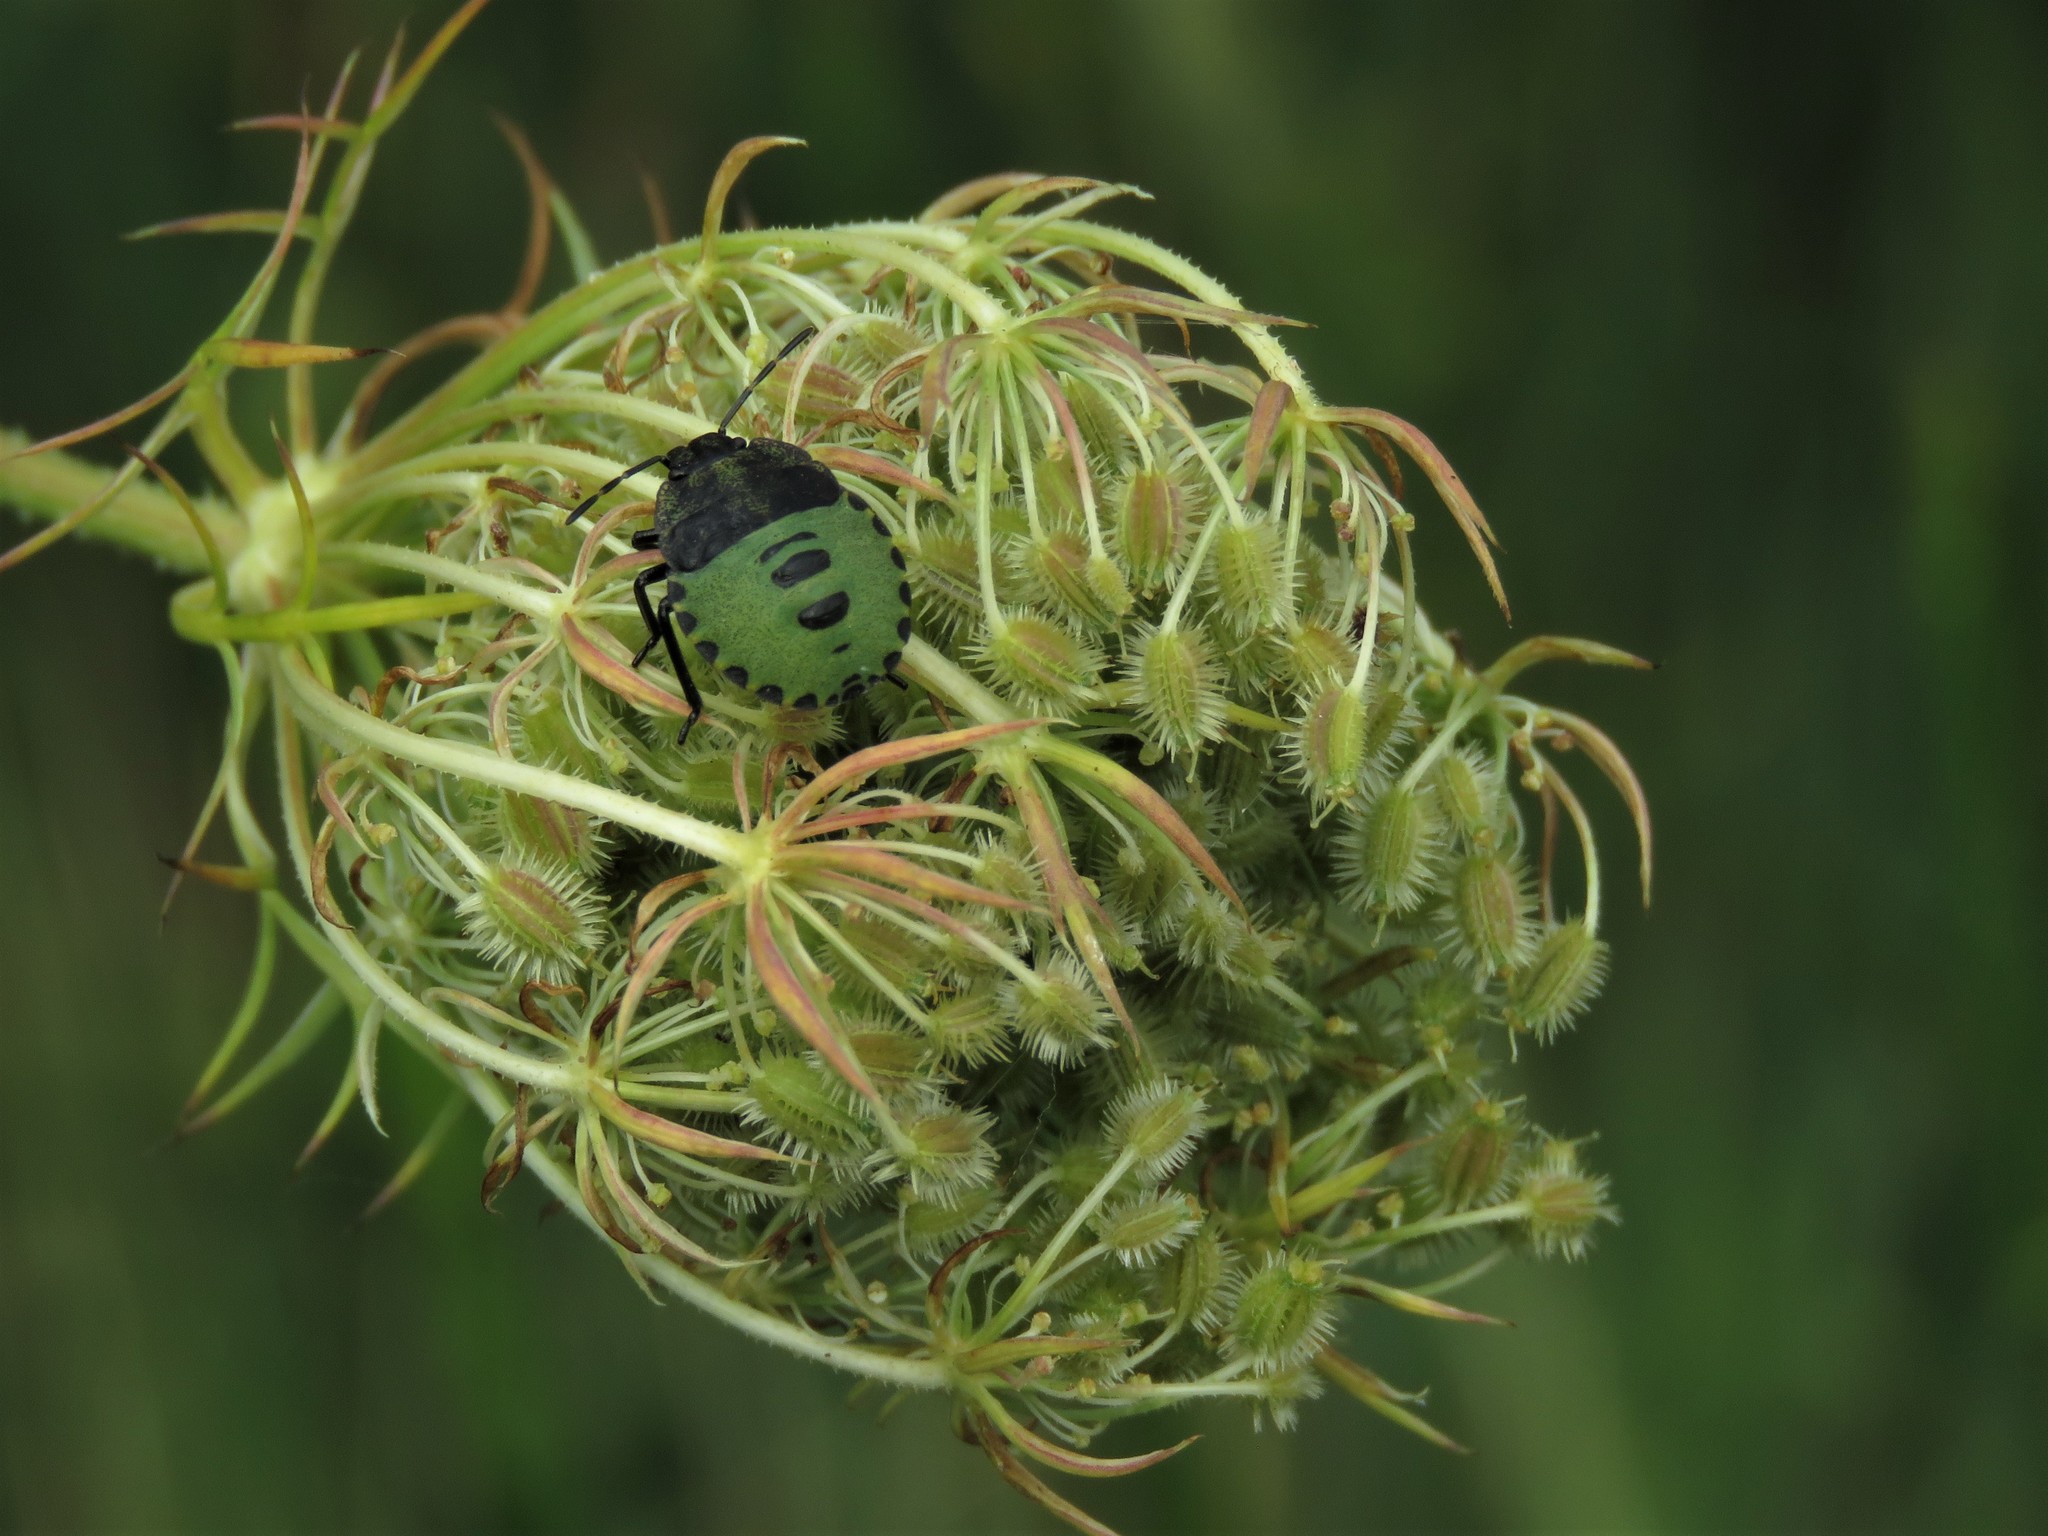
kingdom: Animalia
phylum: Arthropoda
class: Insecta
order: Hemiptera
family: Pentatomidae
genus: Palomena
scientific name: Palomena prasina
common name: Green shieldbug
